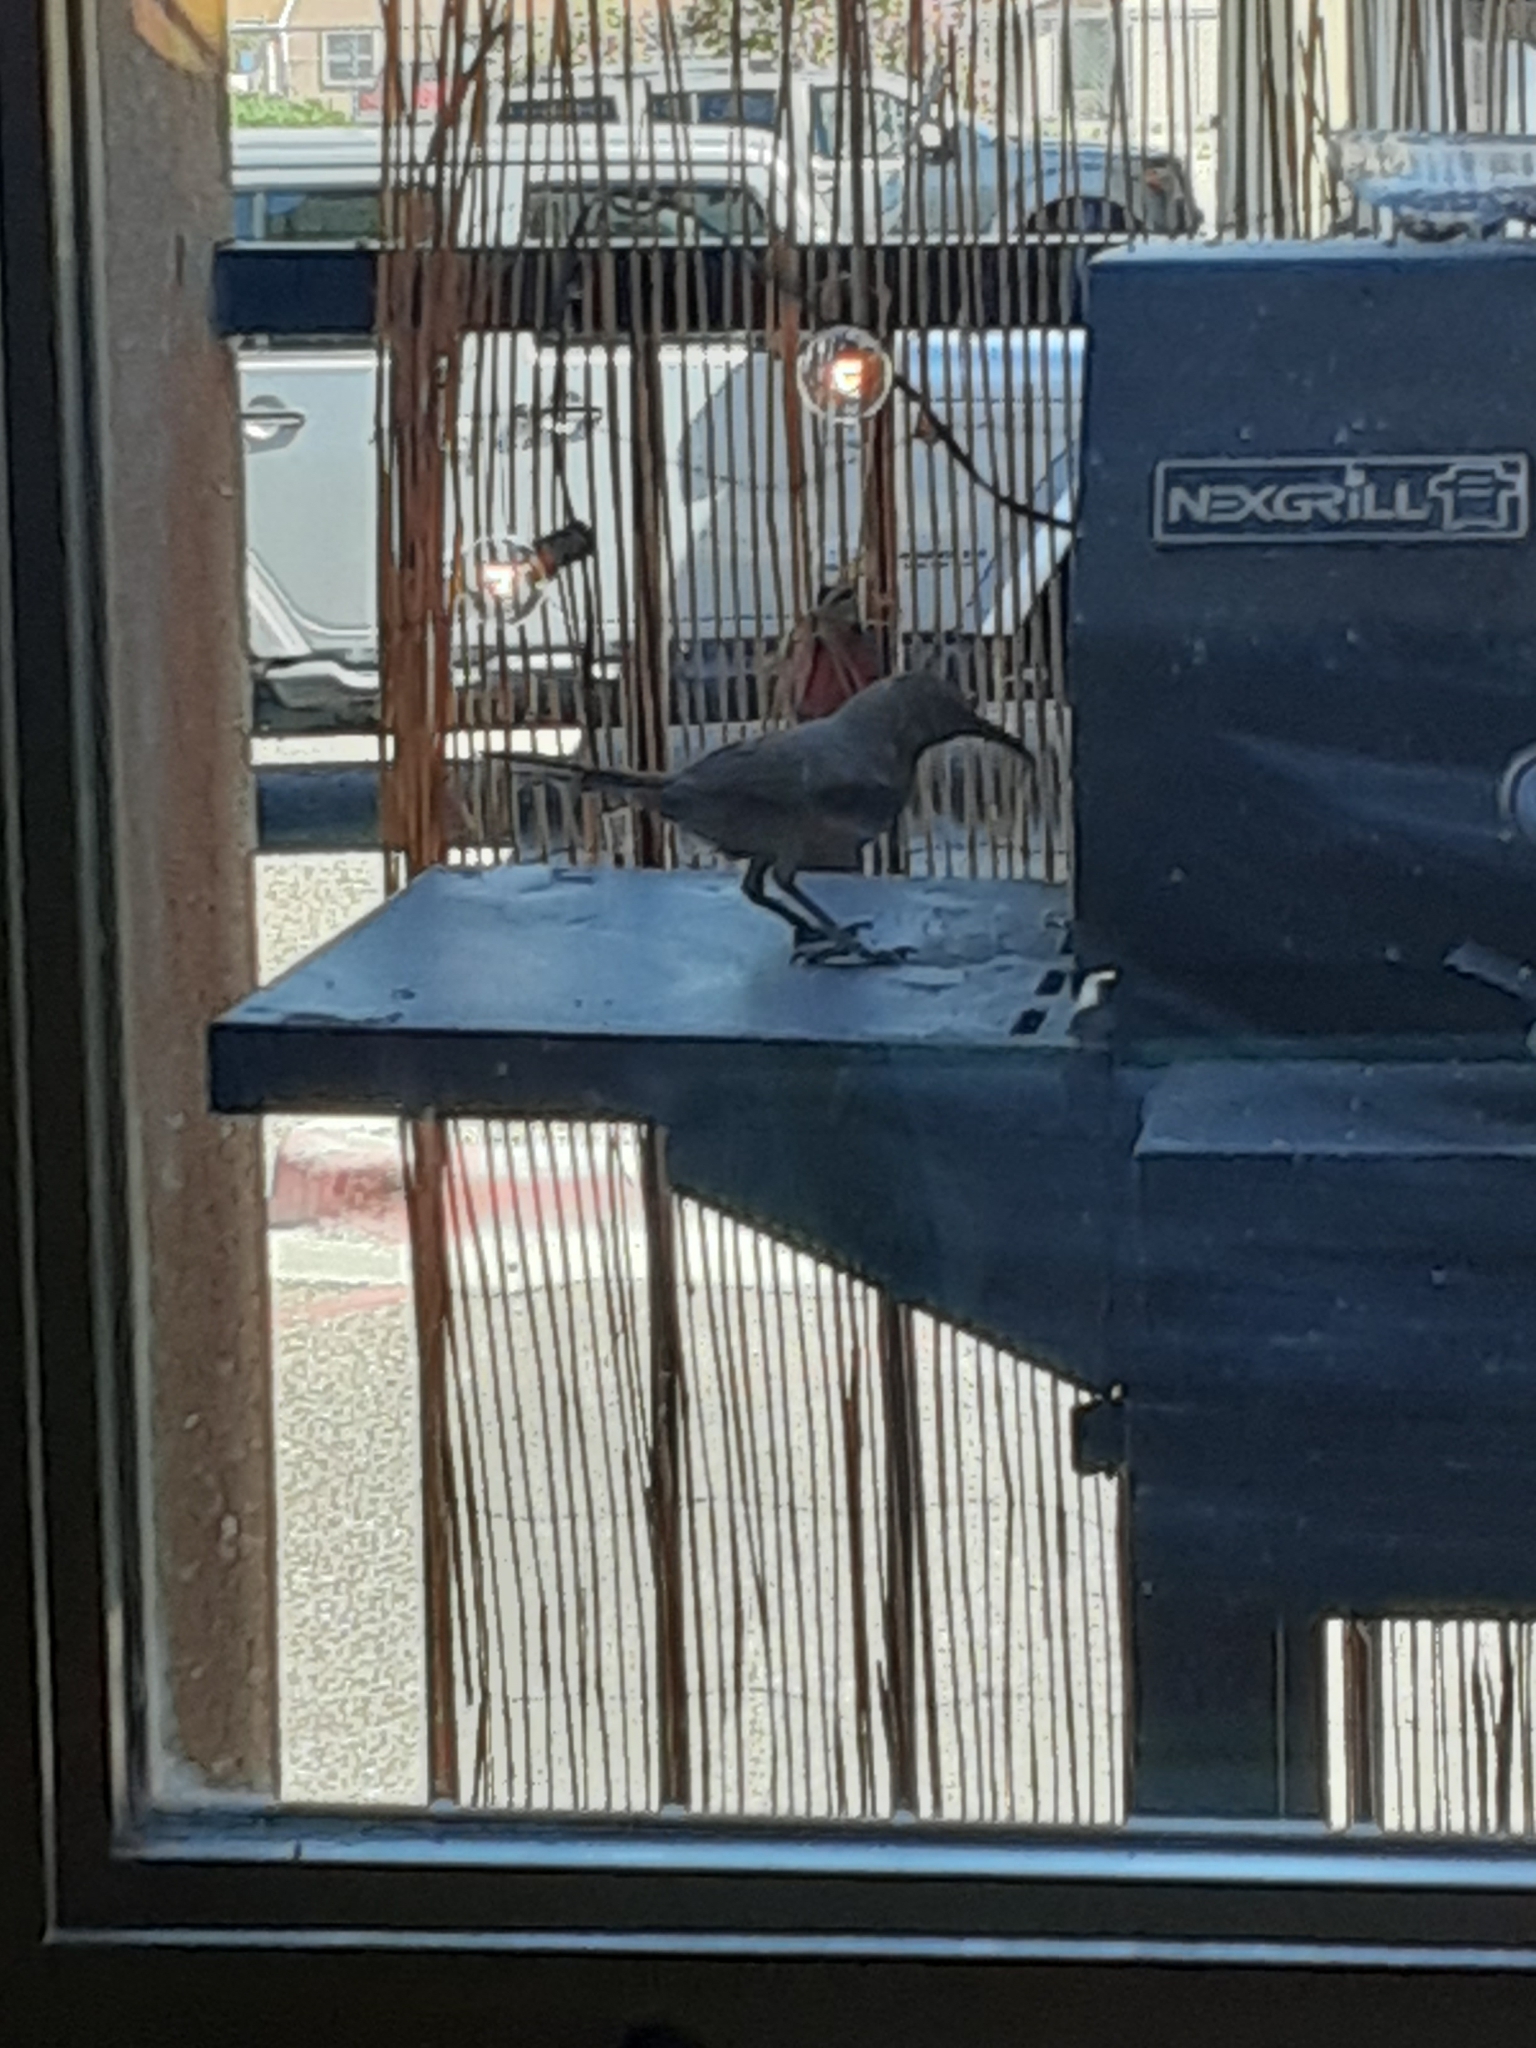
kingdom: Animalia
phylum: Chordata
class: Aves
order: Passeriformes
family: Mimidae
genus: Toxostoma
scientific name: Toxostoma curvirostre
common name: Curve-billed thrasher
